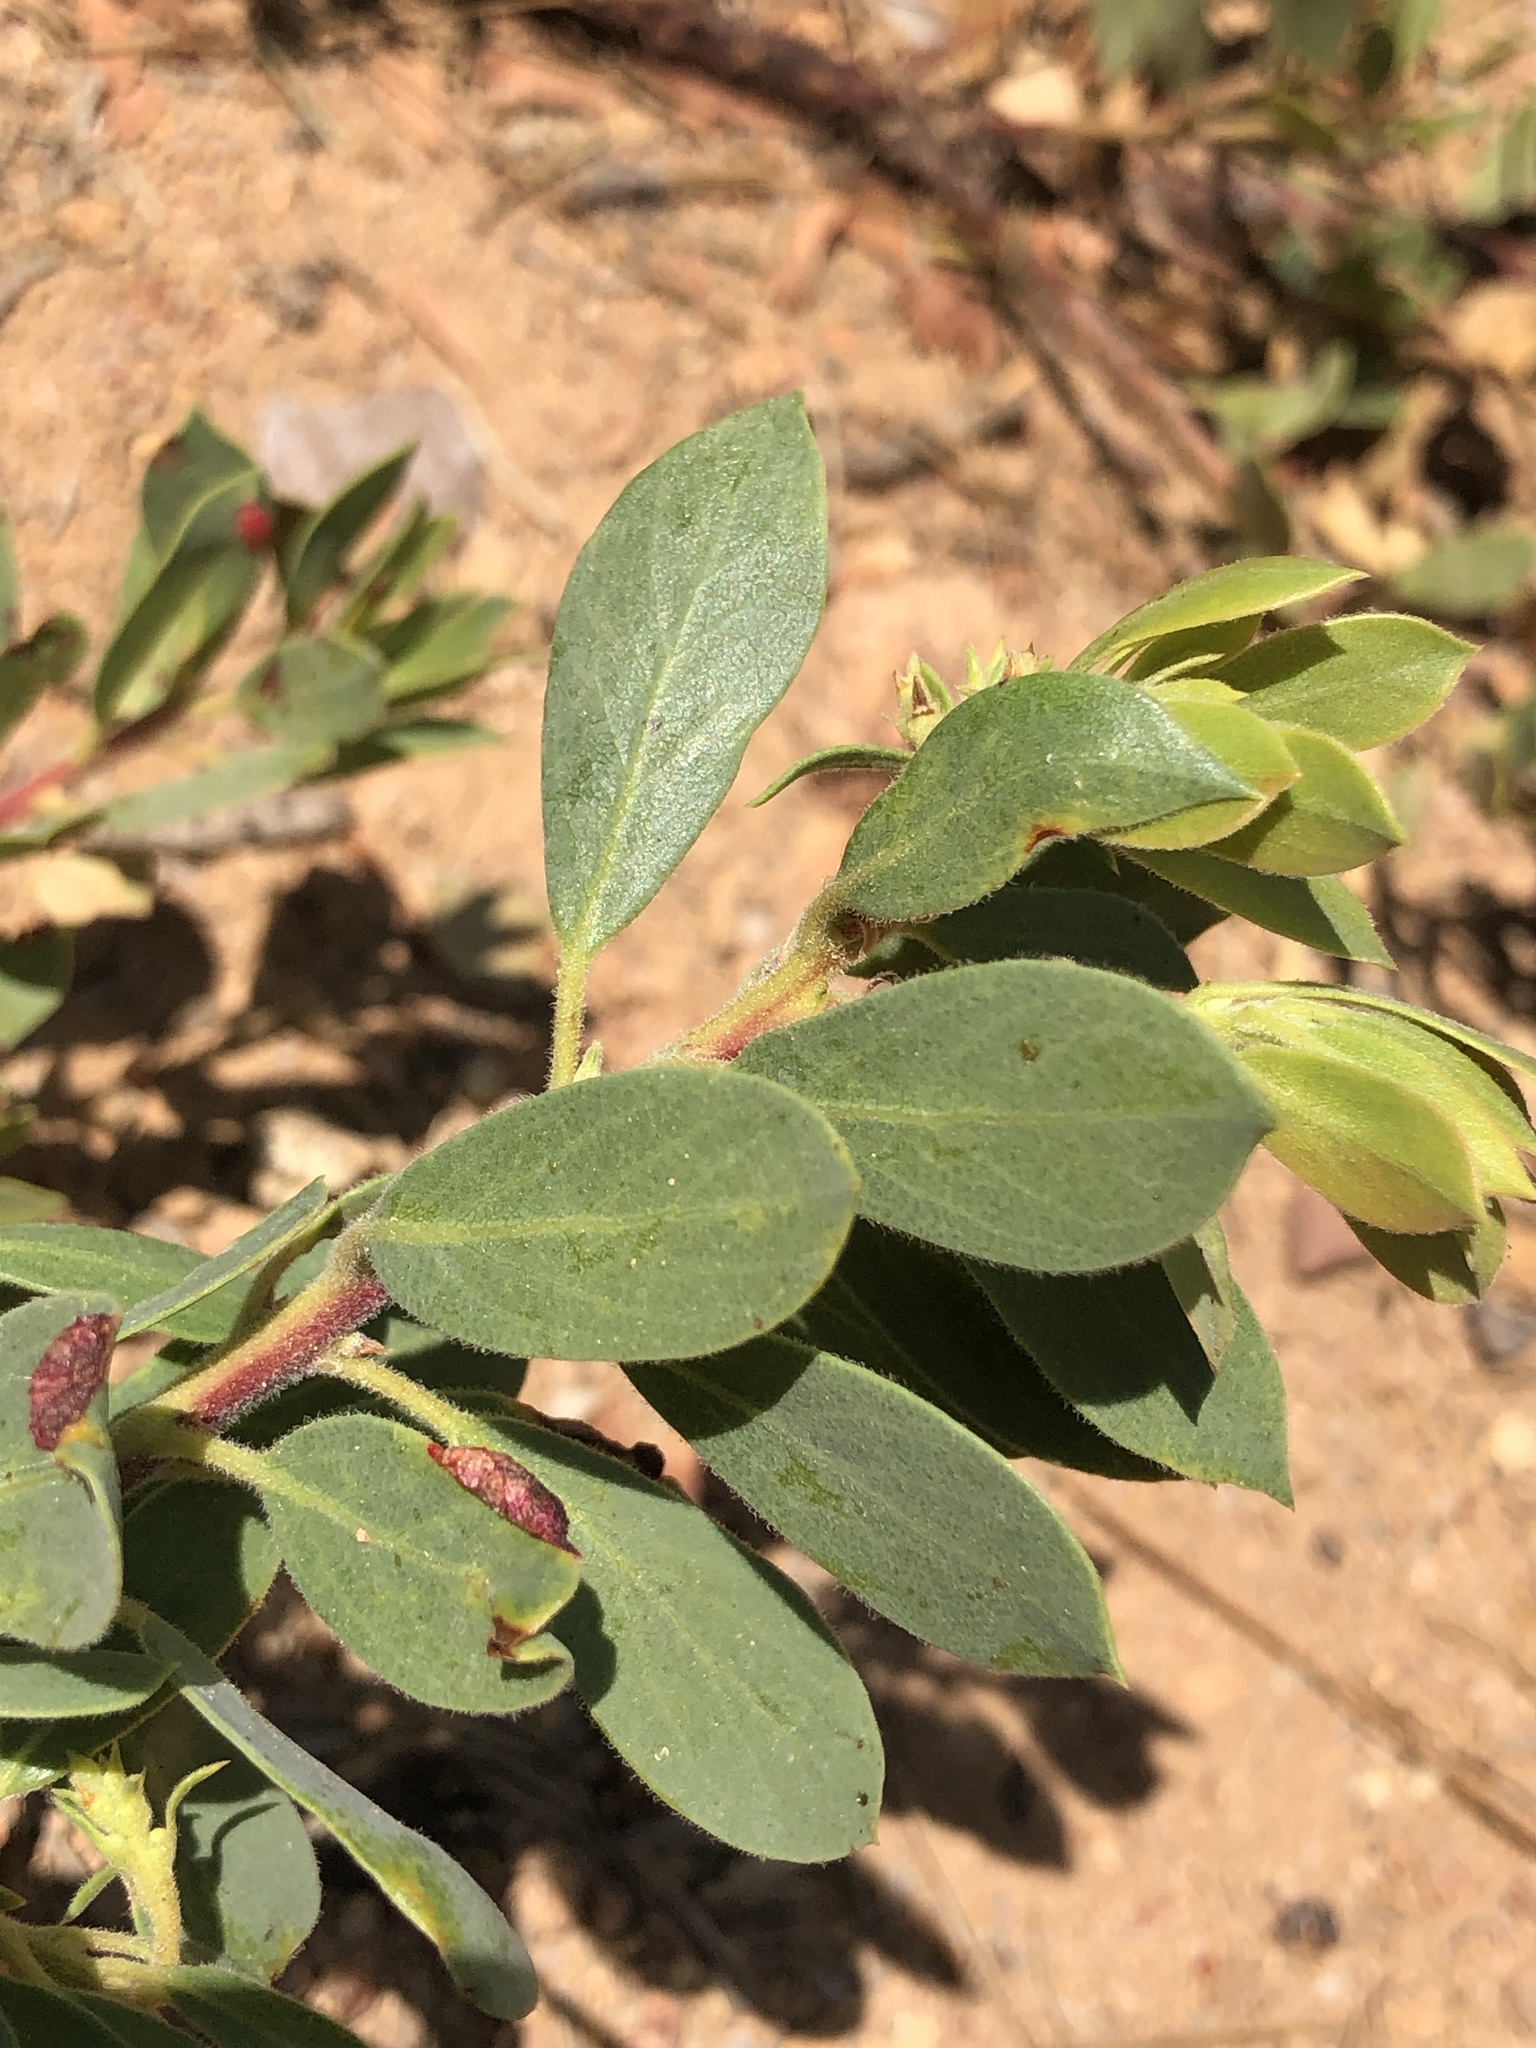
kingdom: Plantae
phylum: Tracheophyta
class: Magnoliopsida
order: Ericales
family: Ericaceae
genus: Arctostaphylos
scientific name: Arctostaphylos nevadensis
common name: Pinemat manzanita
